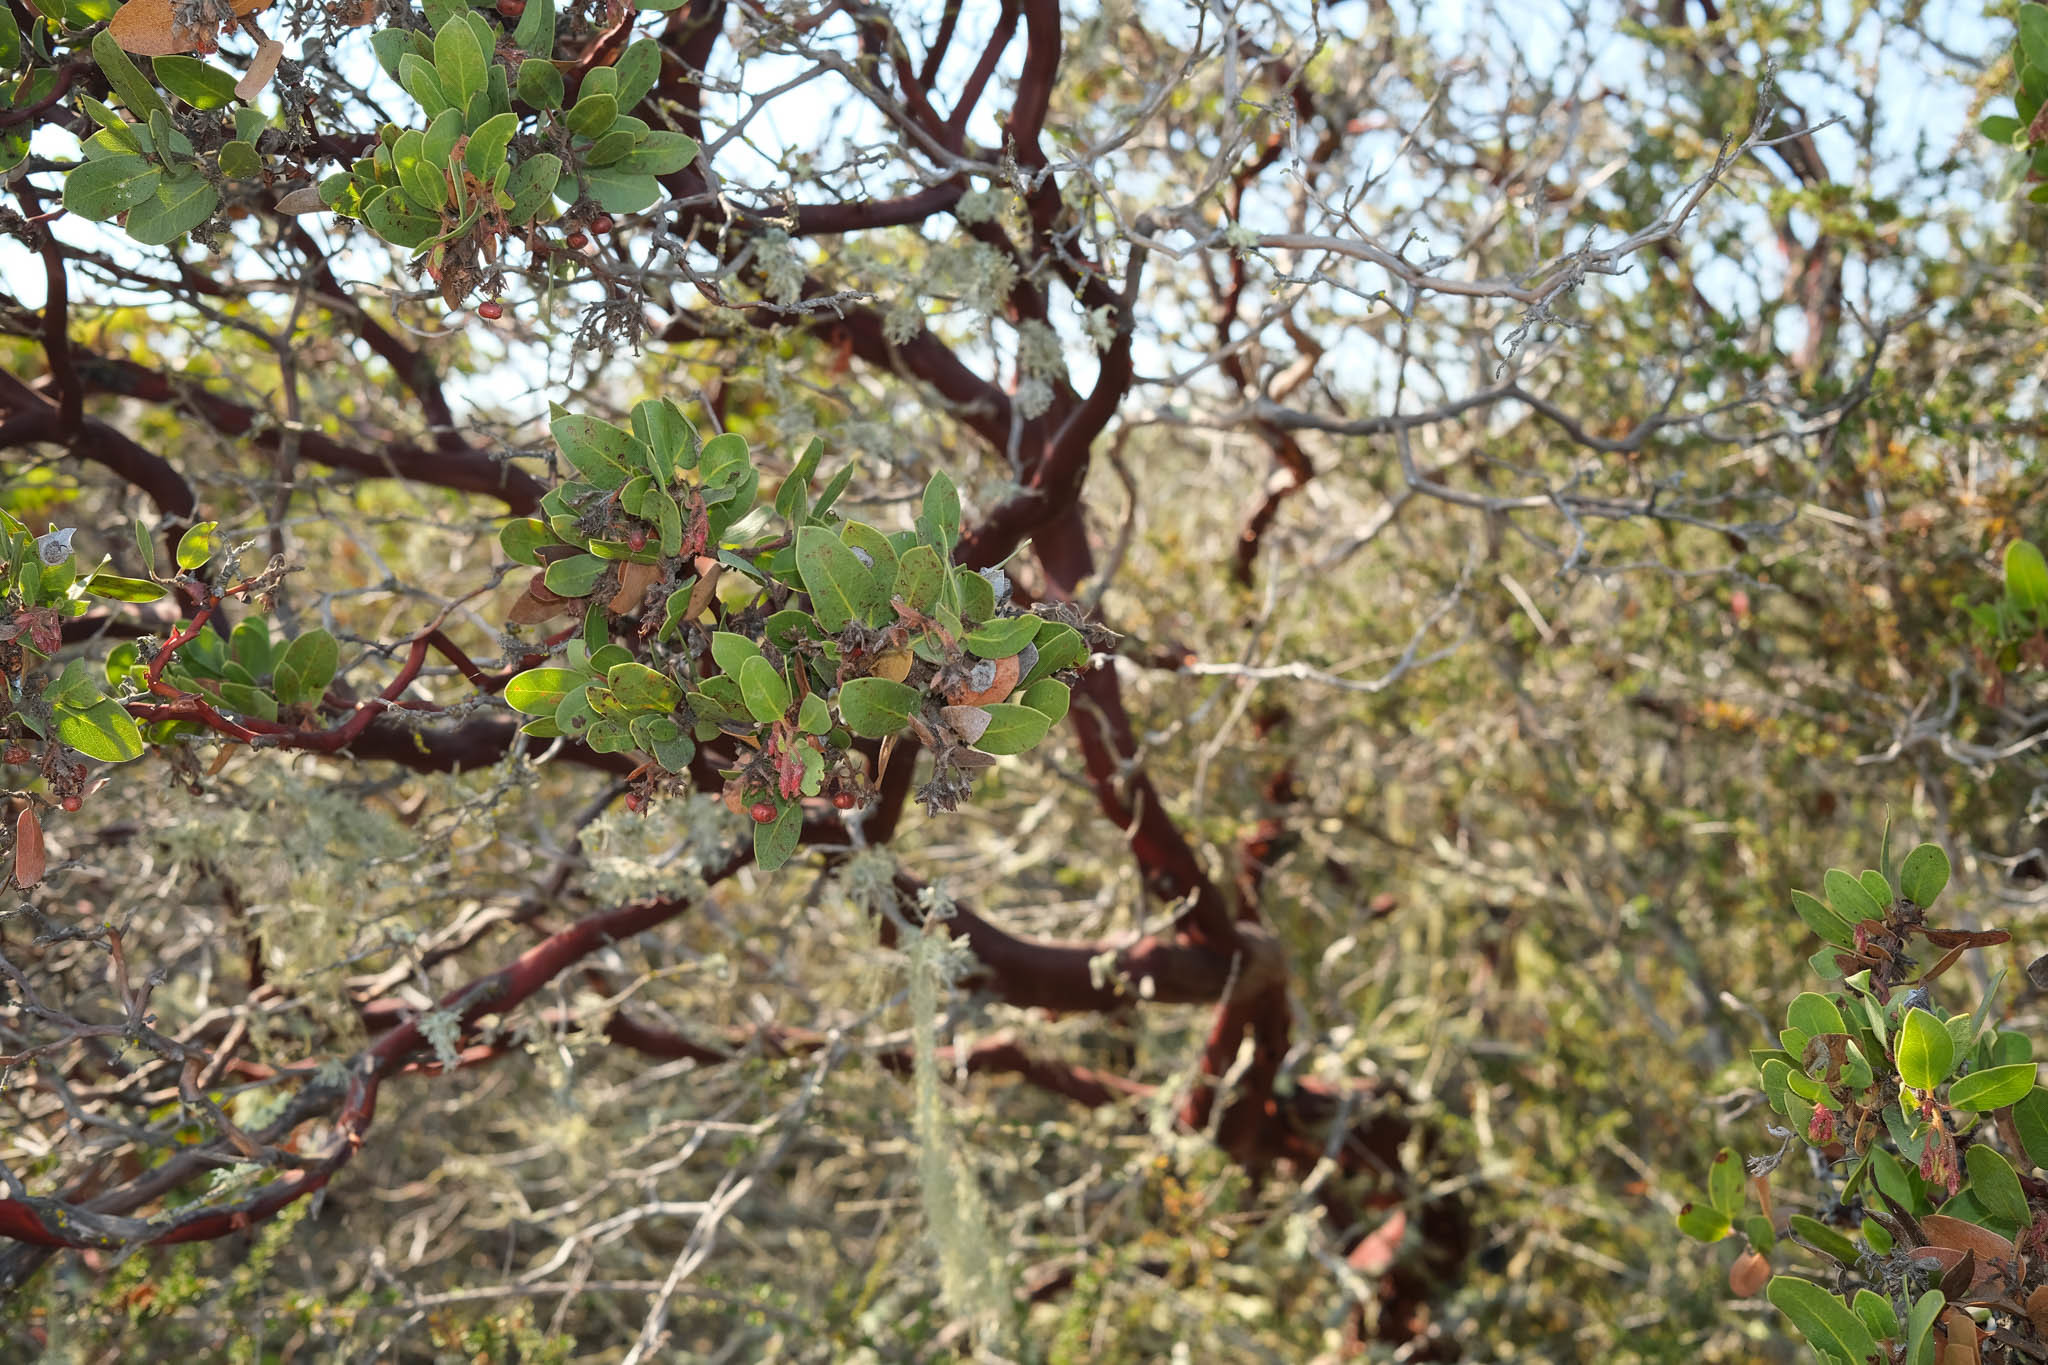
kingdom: Plantae
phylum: Tracheophyta
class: Magnoliopsida
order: Ericales
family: Ericaceae
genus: Arctostaphylos
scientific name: Arctostaphylos montereyensis
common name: Monterey manzanita
